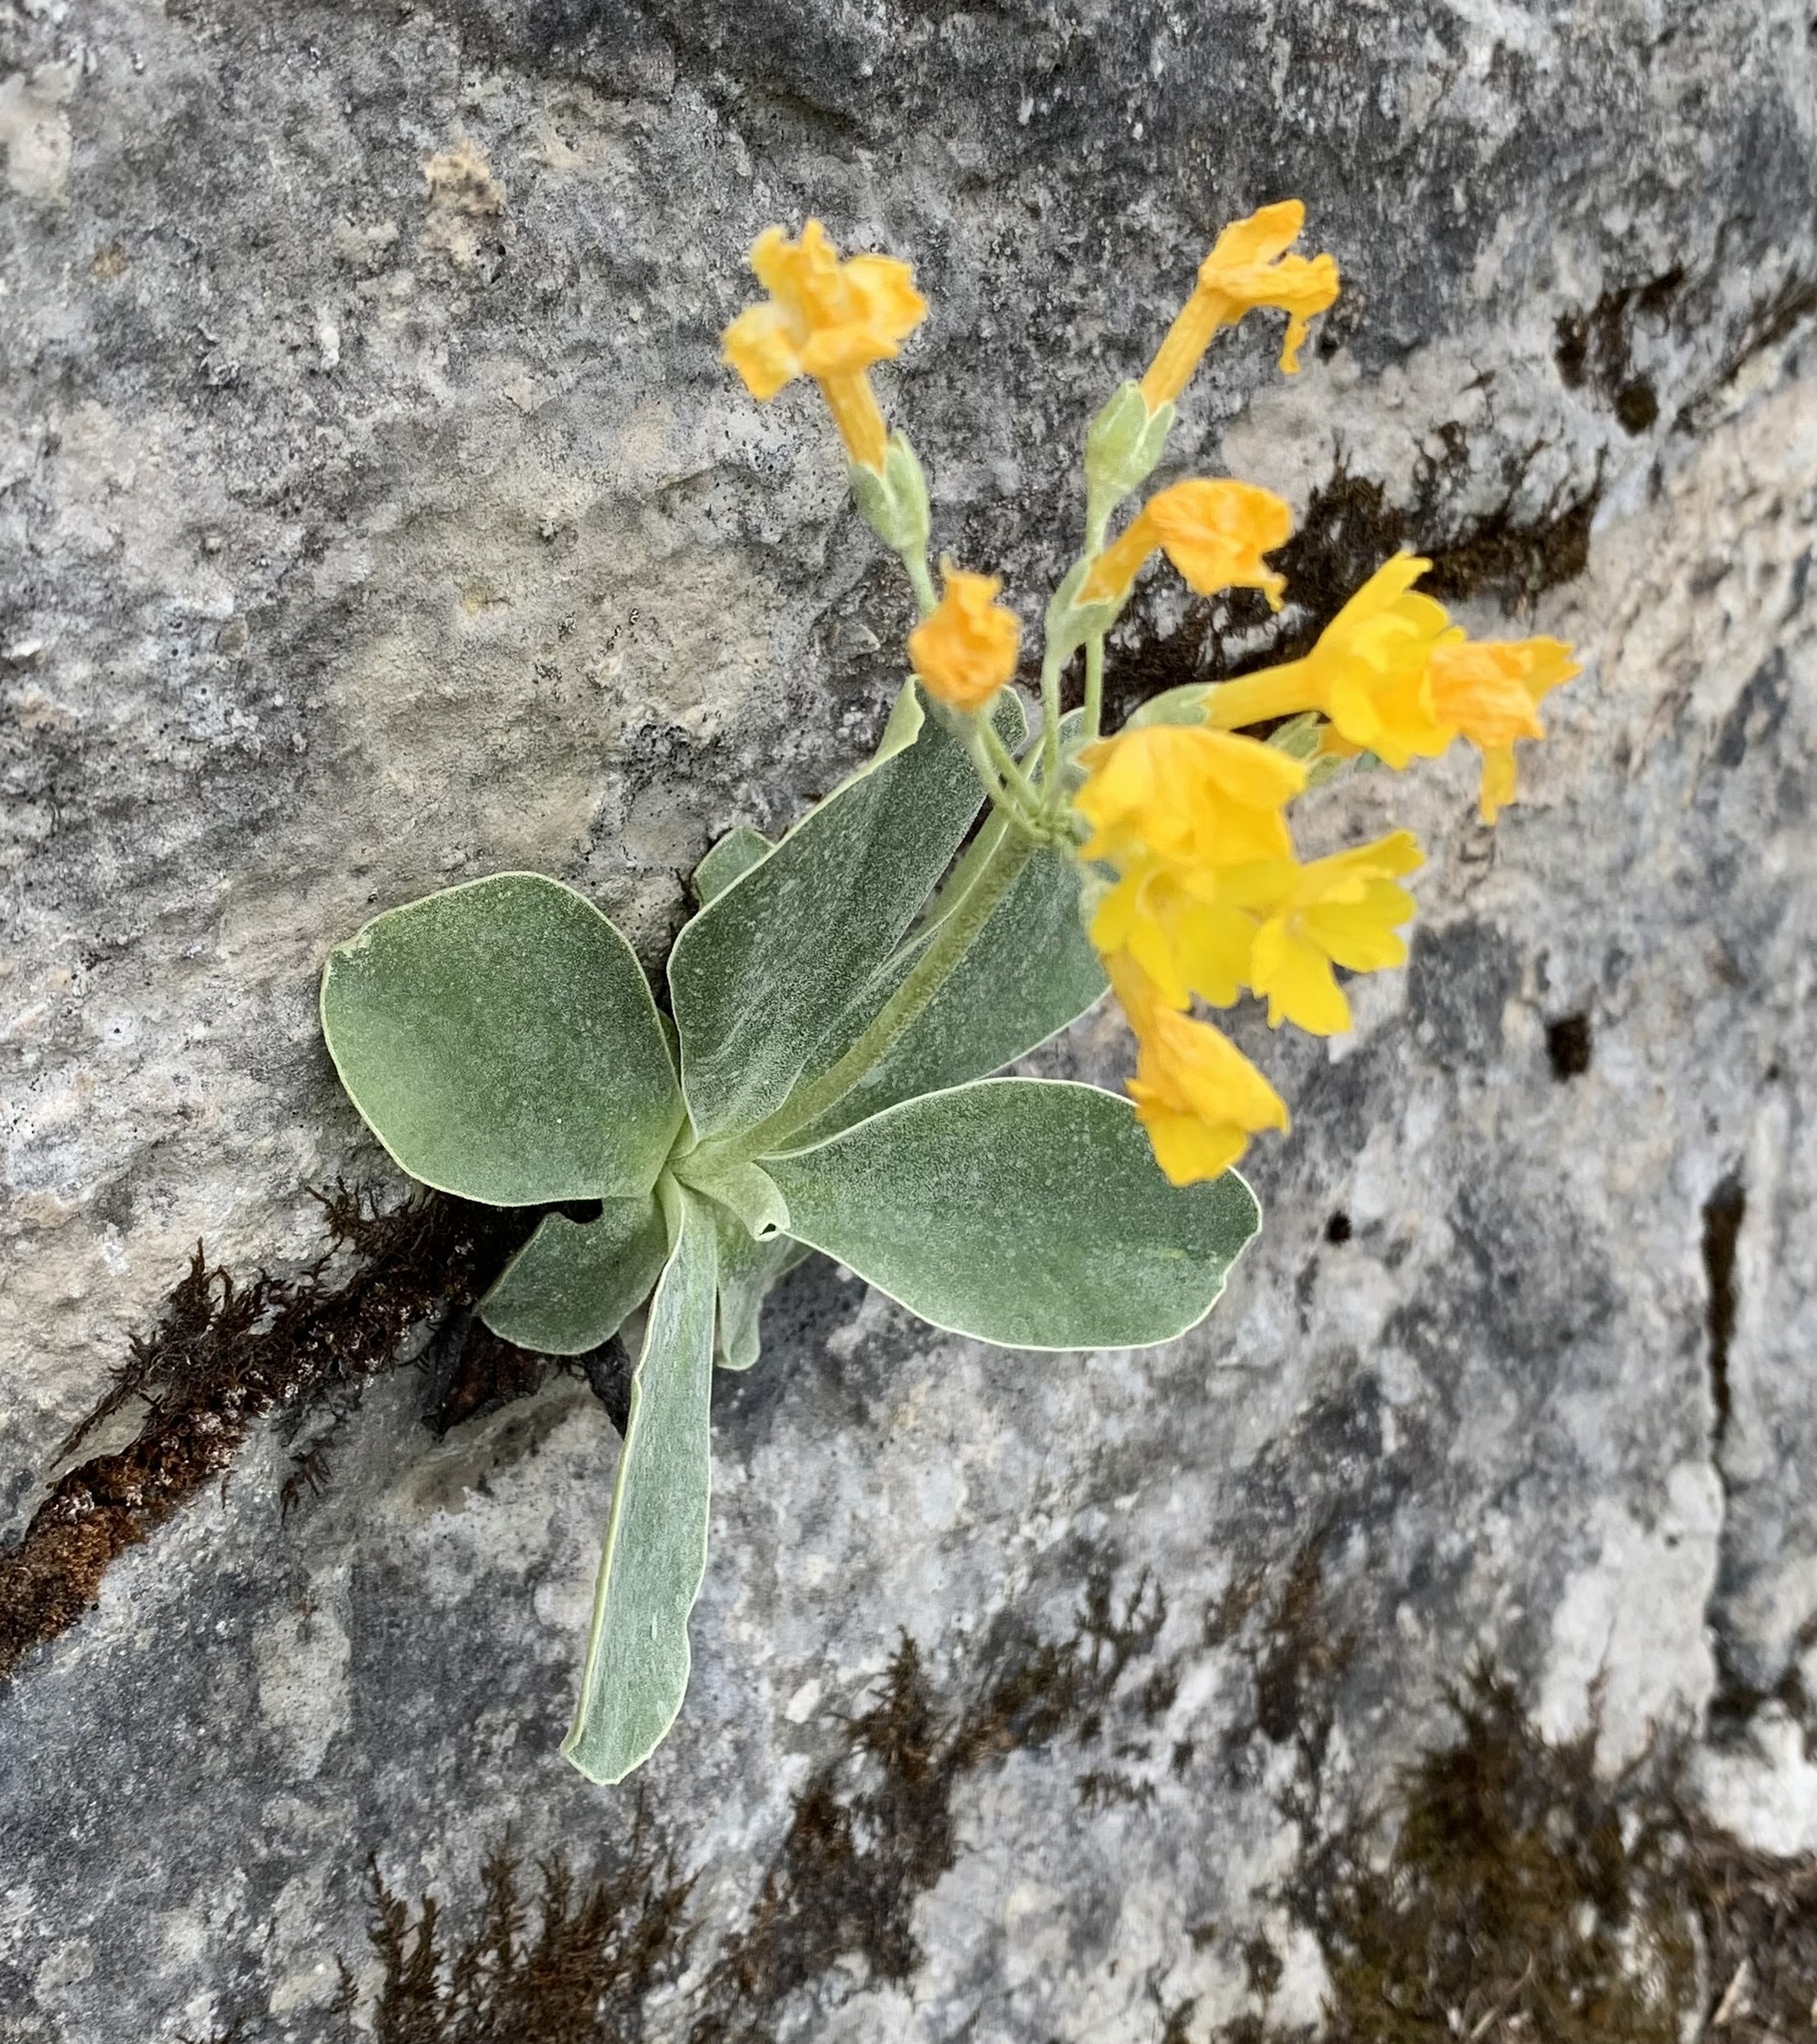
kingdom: Plantae
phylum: Tracheophyta
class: Magnoliopsida
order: Ericales
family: Primulaceae
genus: Primula
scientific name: Primula auricula
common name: Auricula
